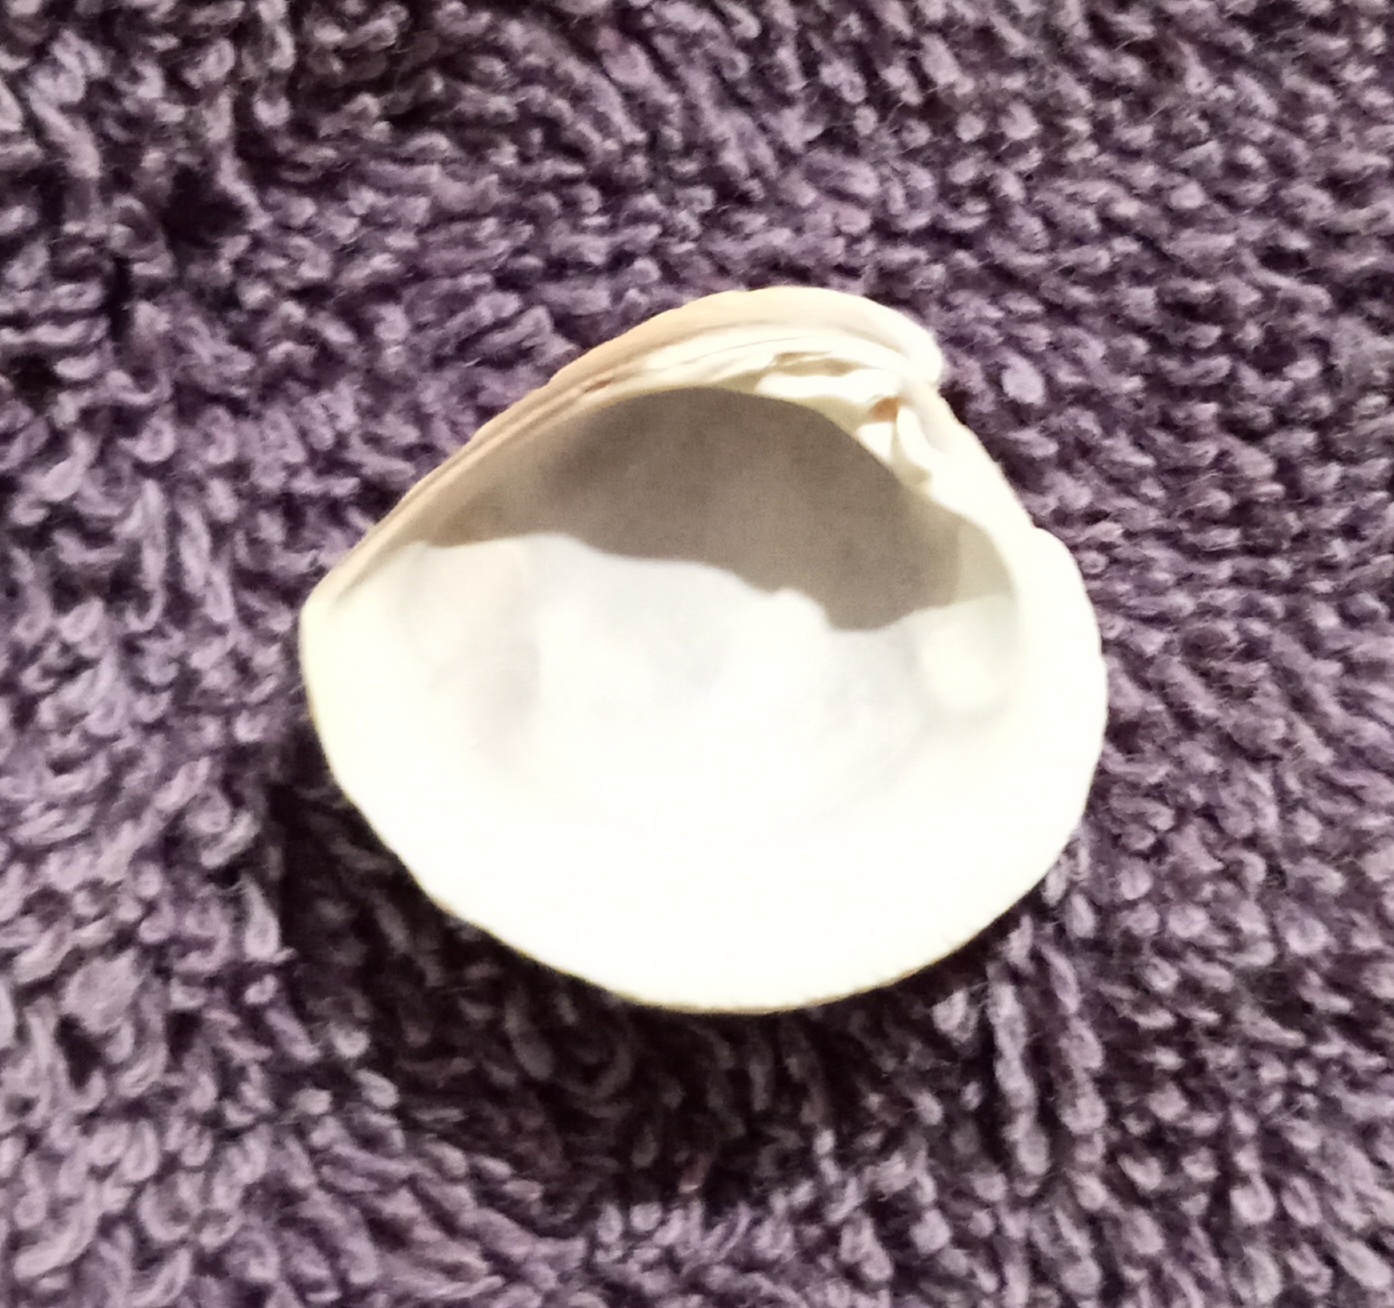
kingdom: Animalia
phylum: Mollusca
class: Bivalvia
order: Venerida
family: Veneridae
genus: Chione
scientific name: Chione elevata
